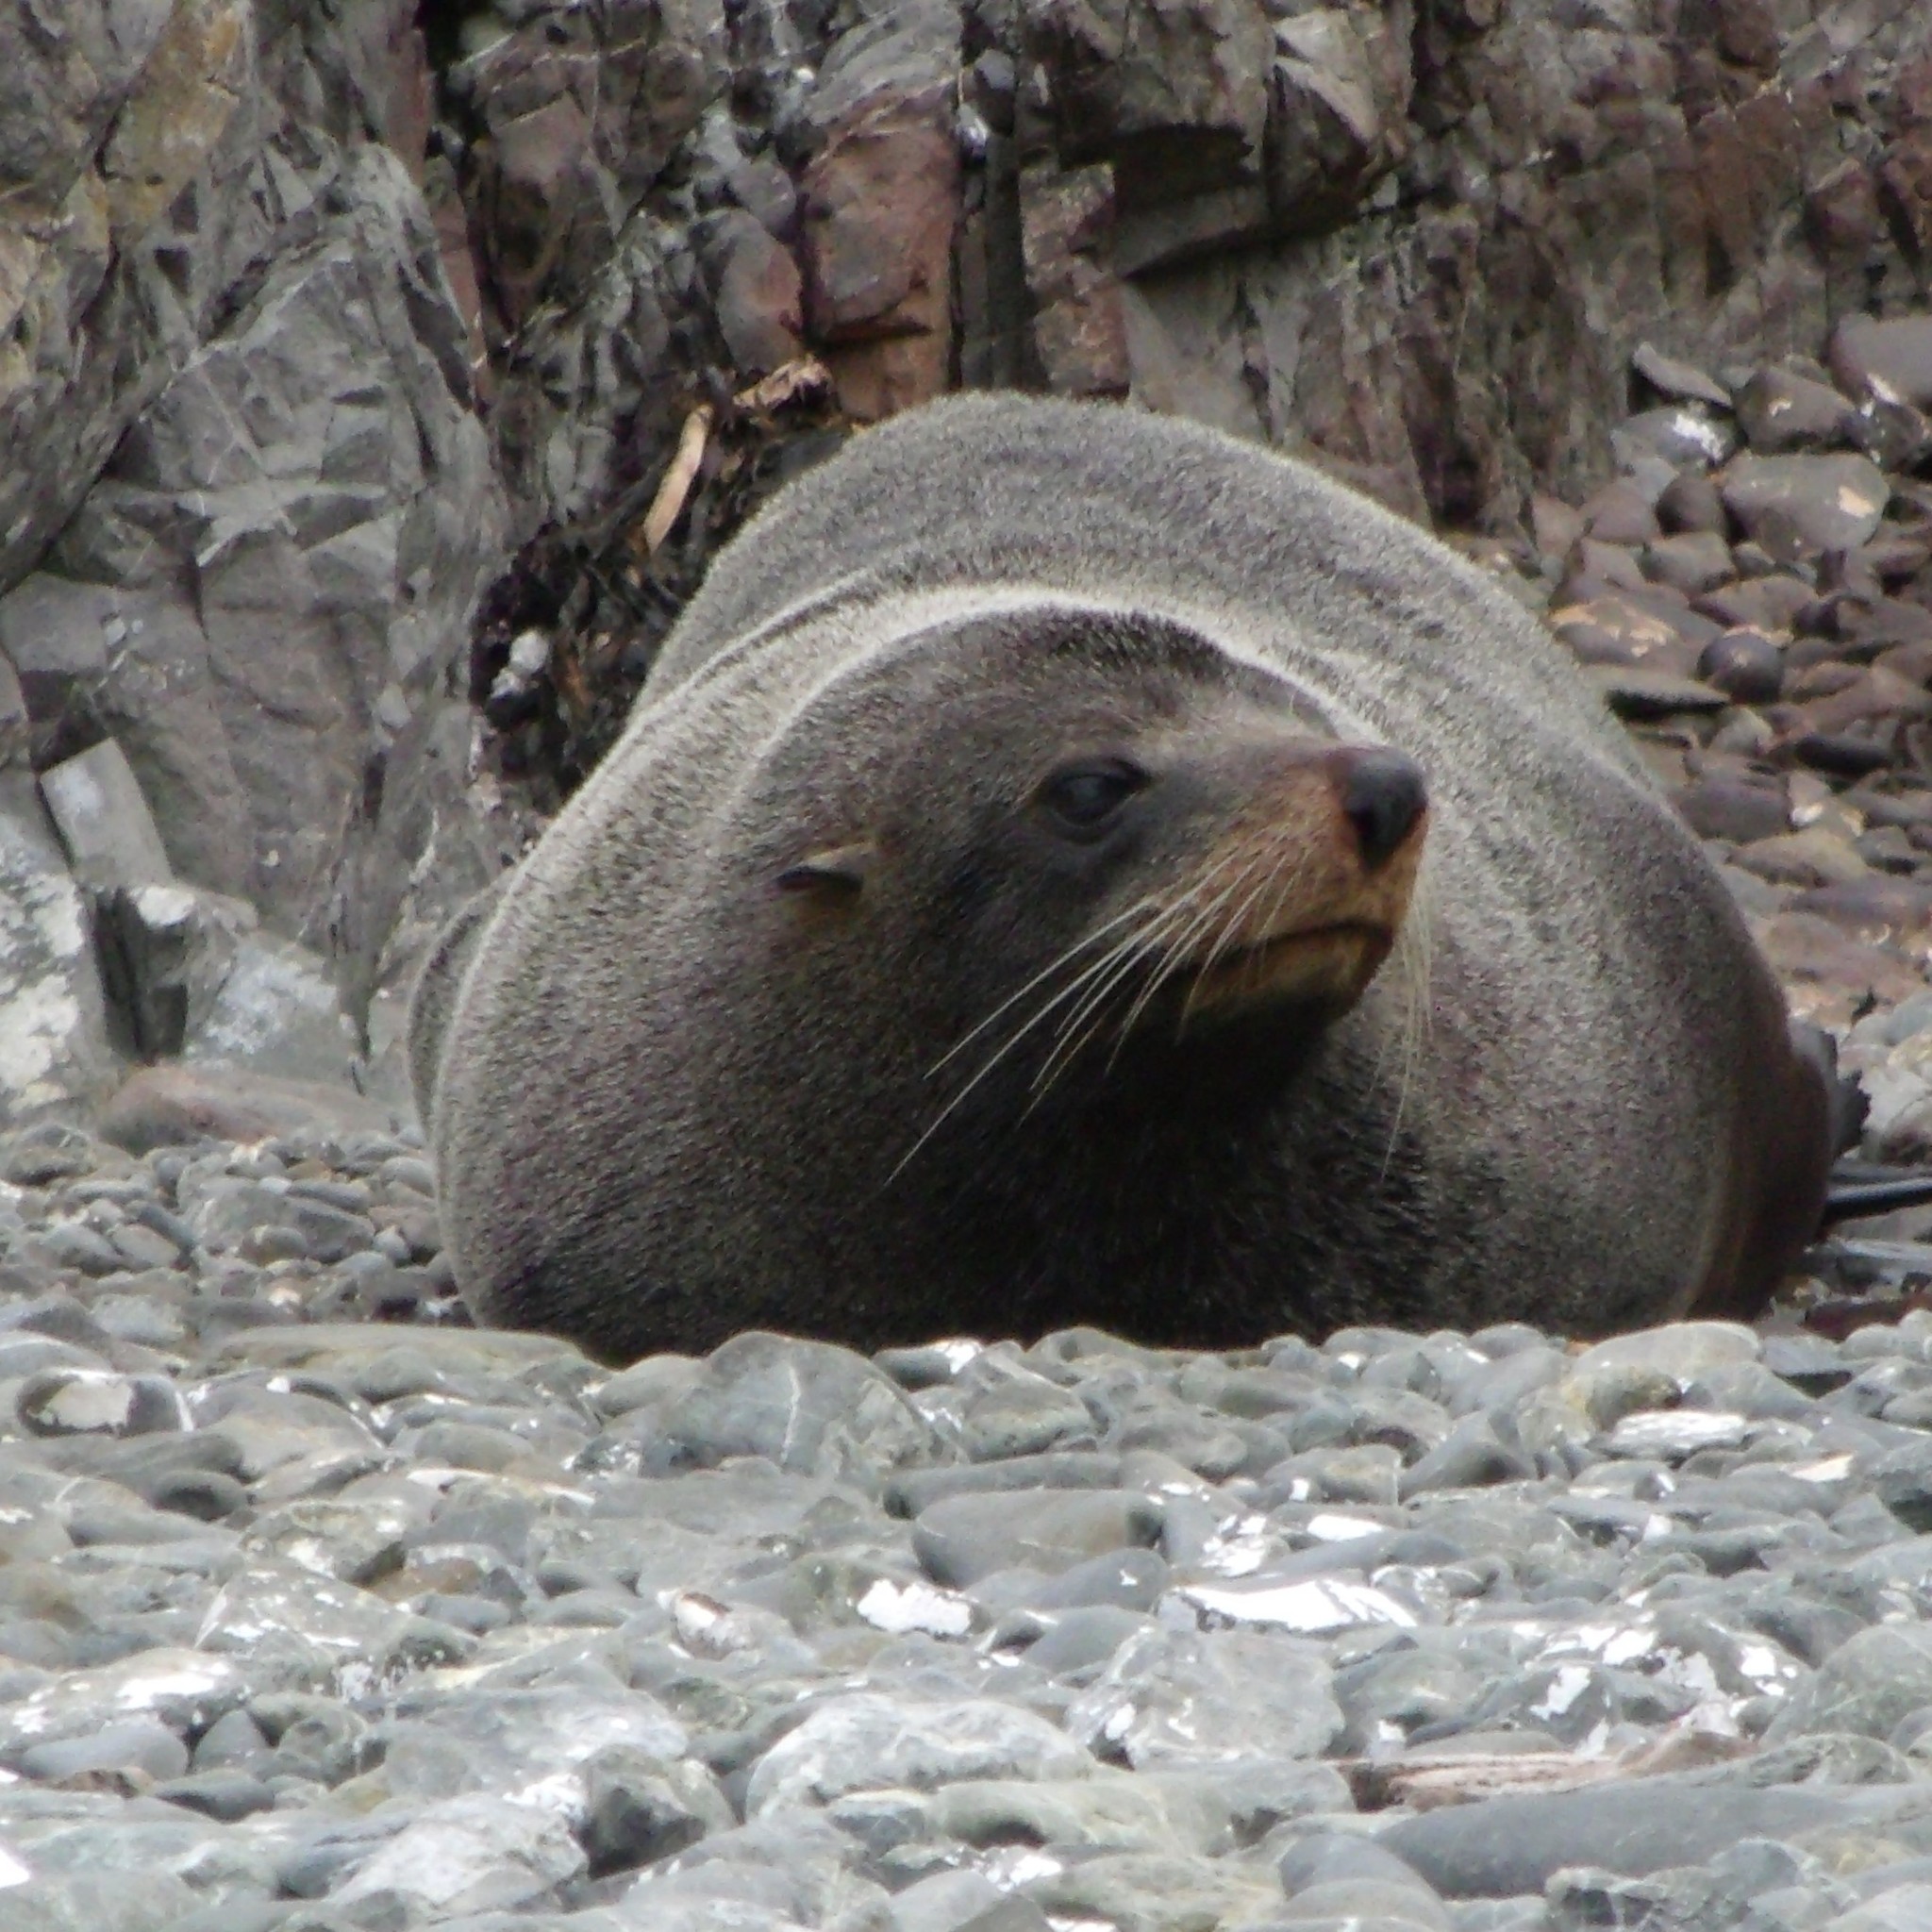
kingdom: Animalia
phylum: Chordata
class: Mammalia
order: Carnivora
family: Otariidae
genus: Arctocephalus
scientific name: Arctocephalus forsteri
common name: New zealand fur seal
